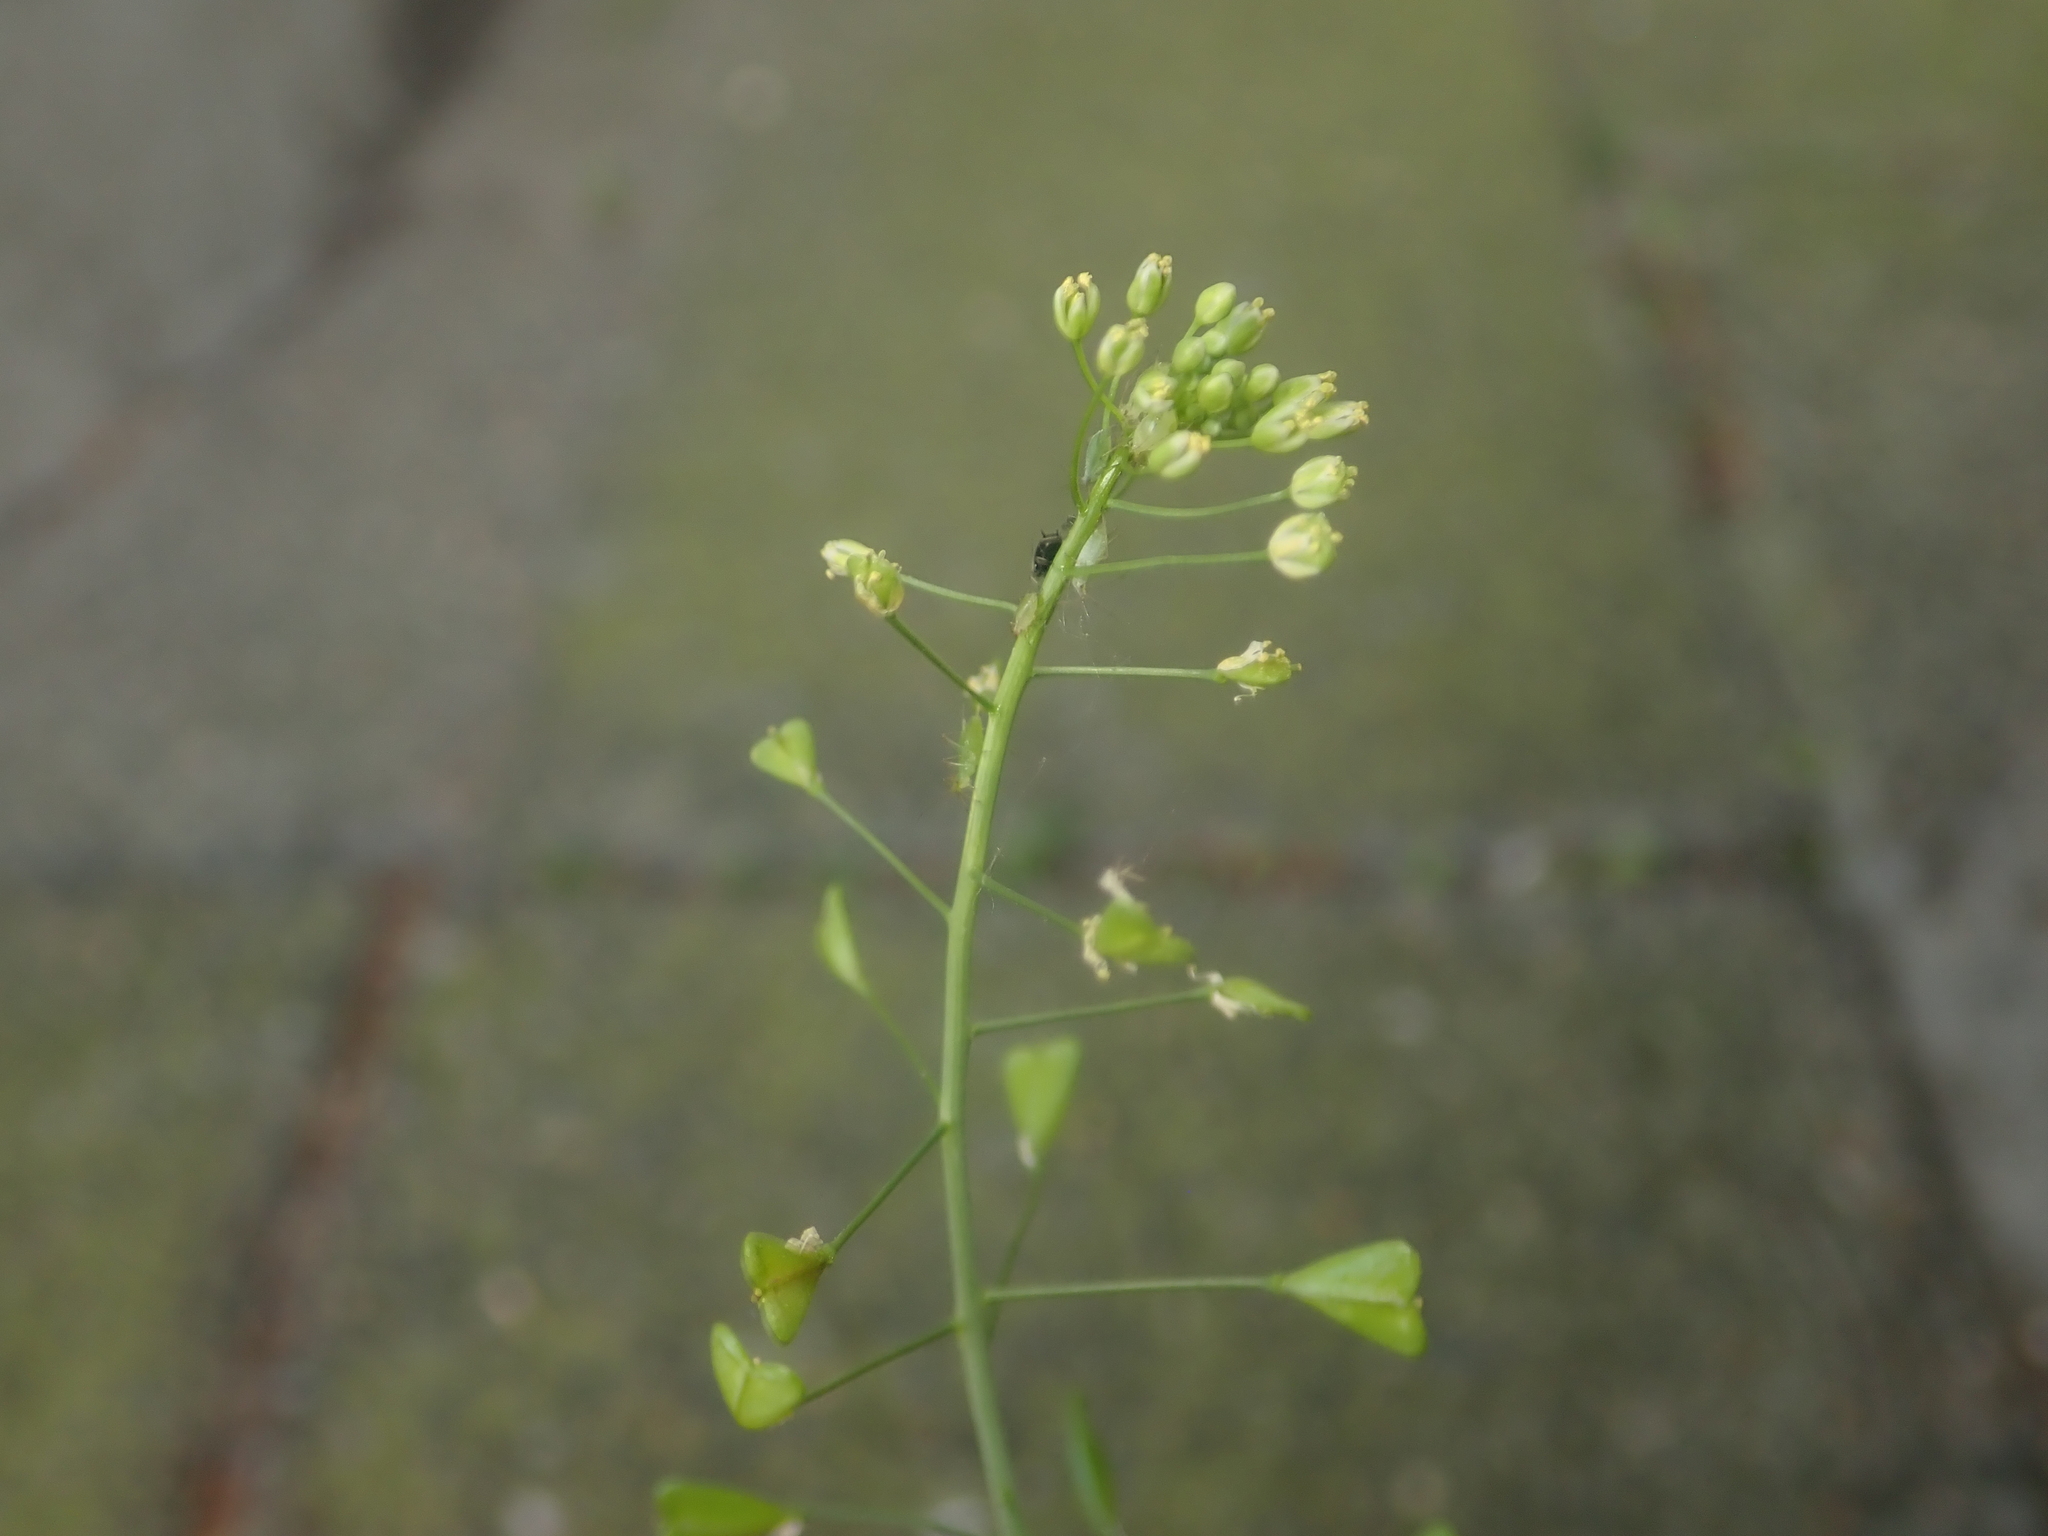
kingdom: Plantae
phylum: Tracheophyta
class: Magnoliopsida
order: Brassicales
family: Brassicaceae
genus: Capsella
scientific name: Capsella bursa-pastoris
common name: Shepherd's purse
